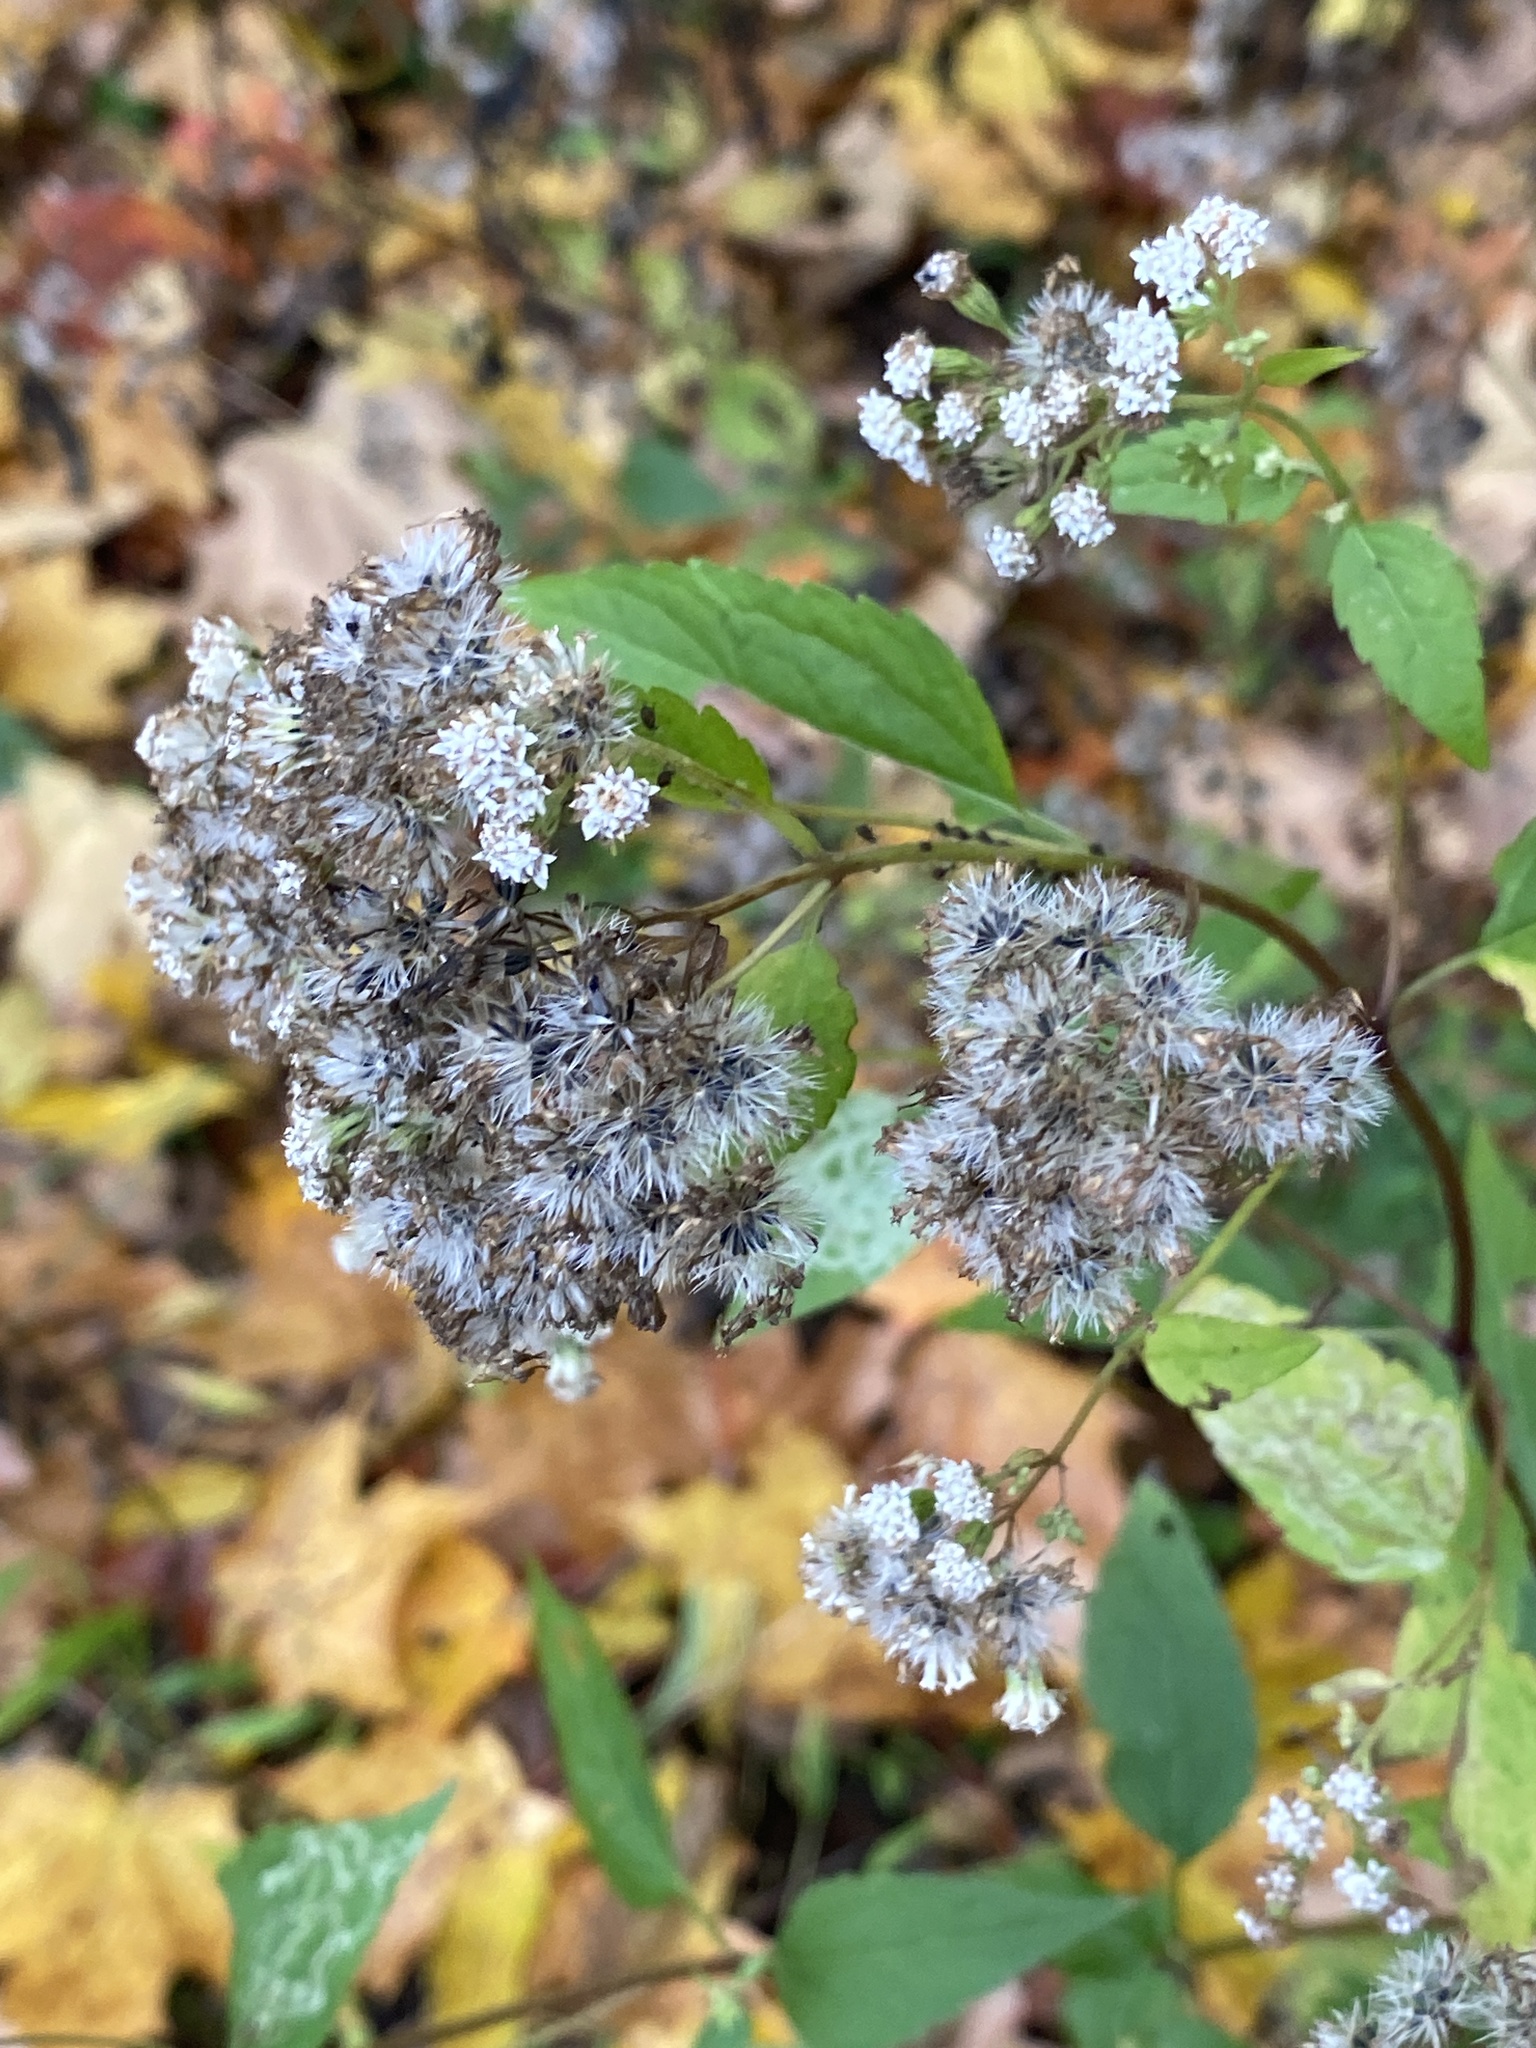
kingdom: Plantae
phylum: Tracheophyta
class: Magnoliopsida
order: Asterales
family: Asteraceae
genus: Ageratina
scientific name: Ageratina altissima
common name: White snakeroot
